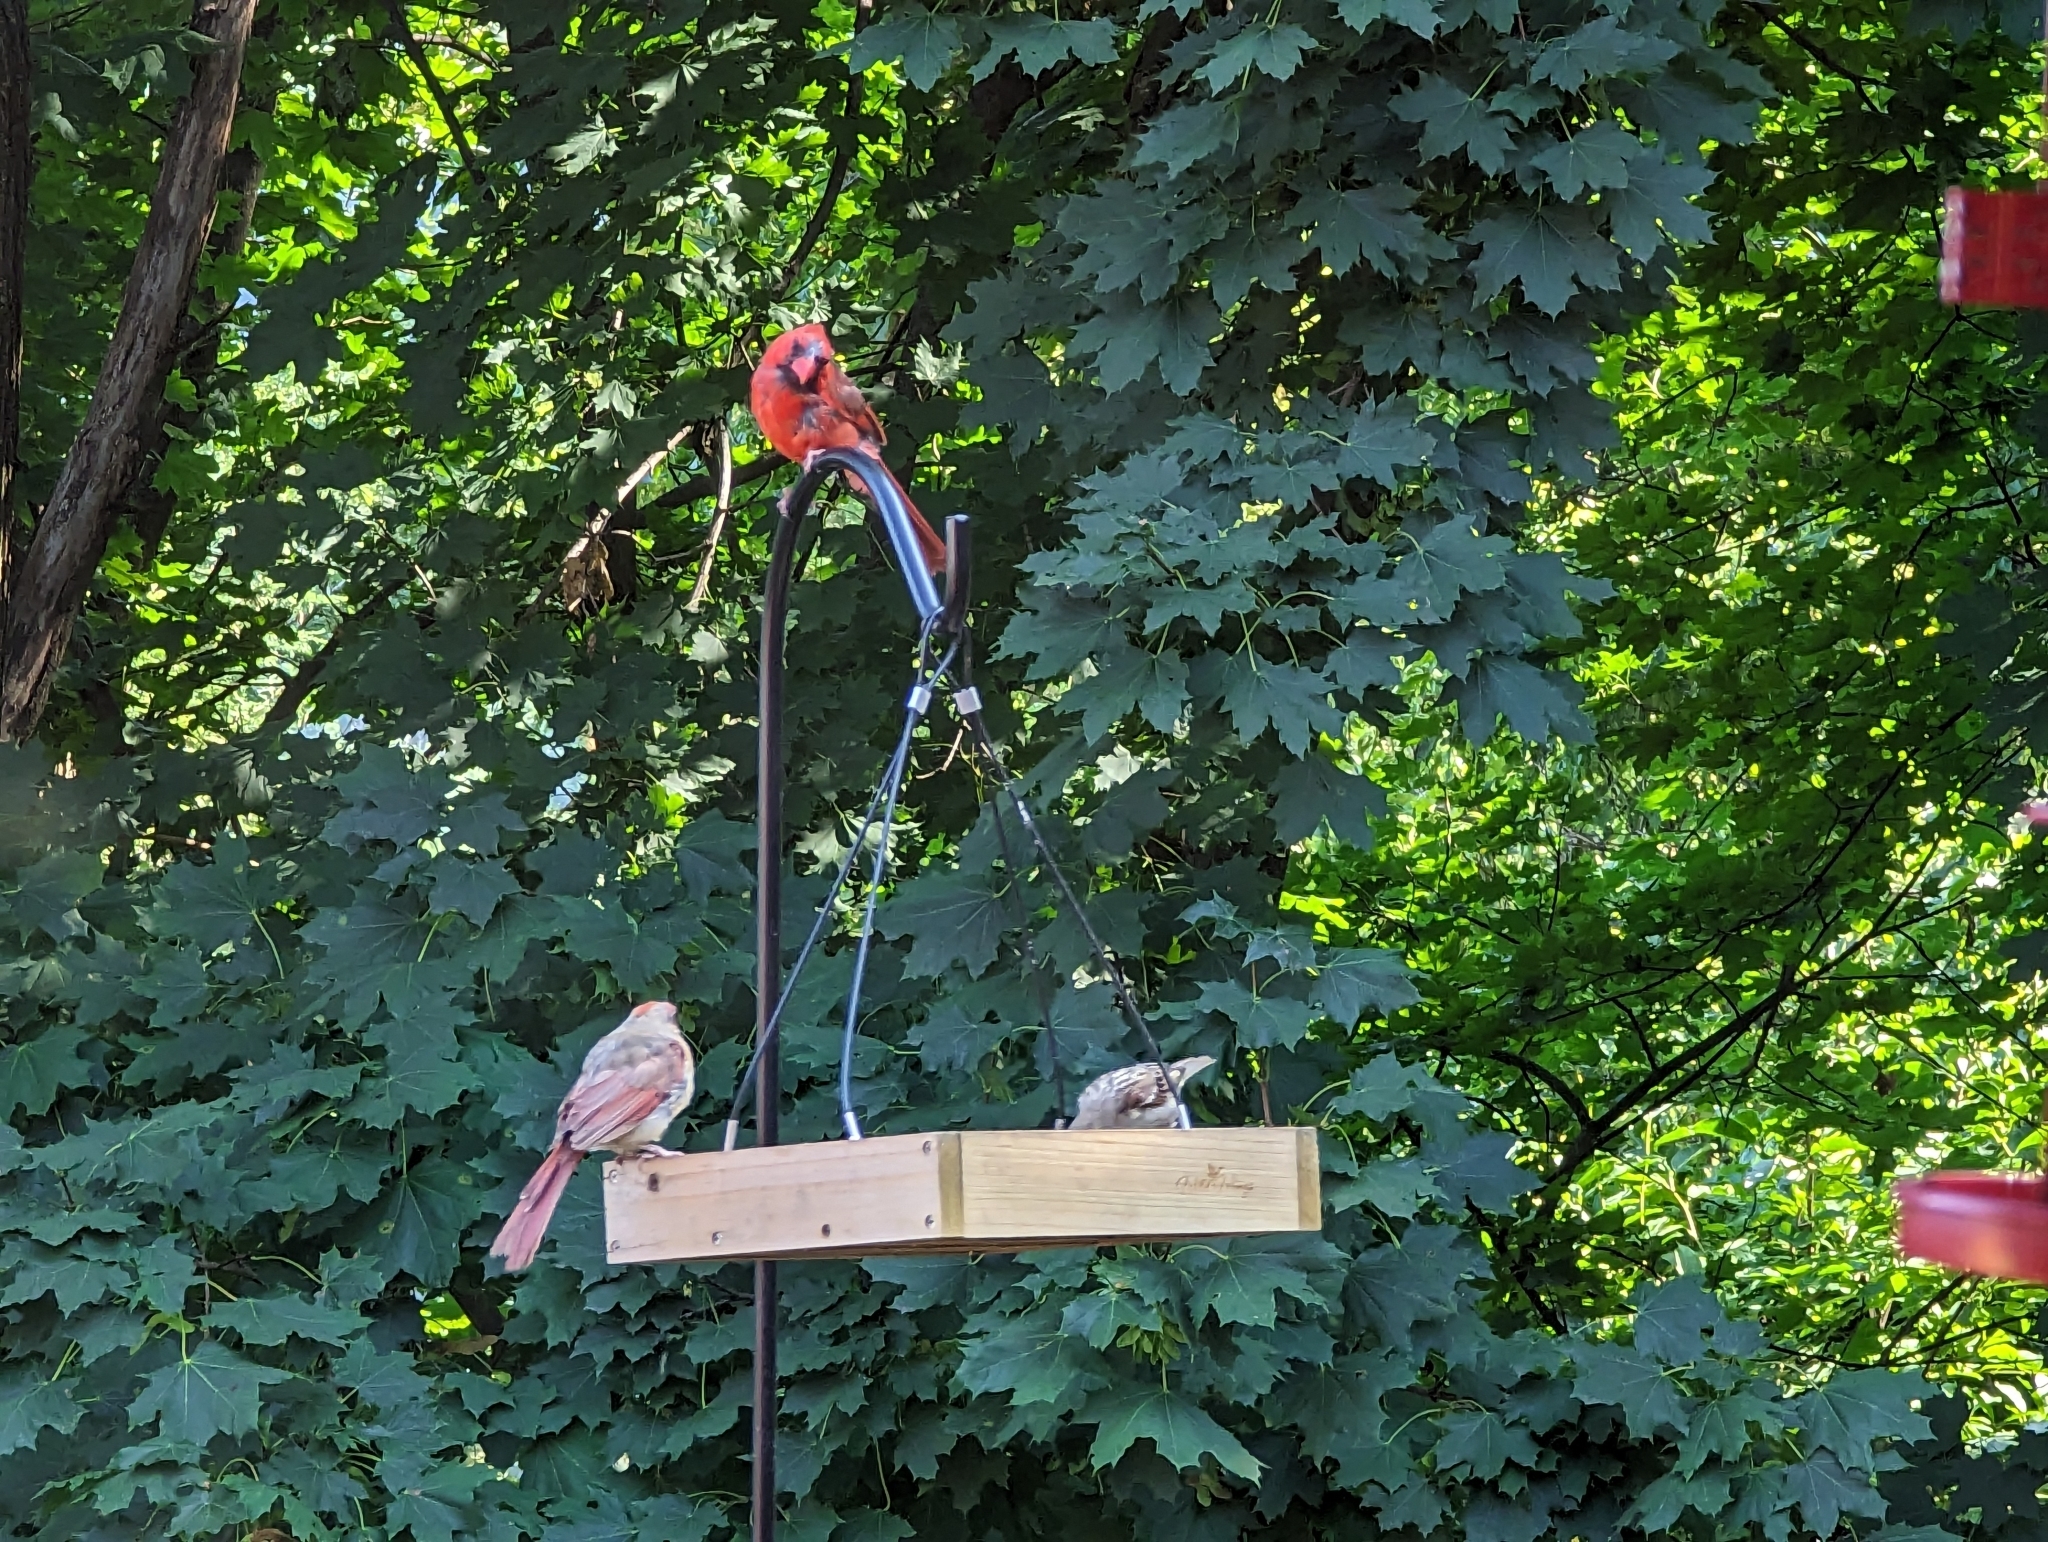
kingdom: Animalia
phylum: Chordata
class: Aves
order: Passeriformes
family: Cardinalidae
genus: Cardinalis
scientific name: Cardinalis cardinalis
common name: Northern cardinal
